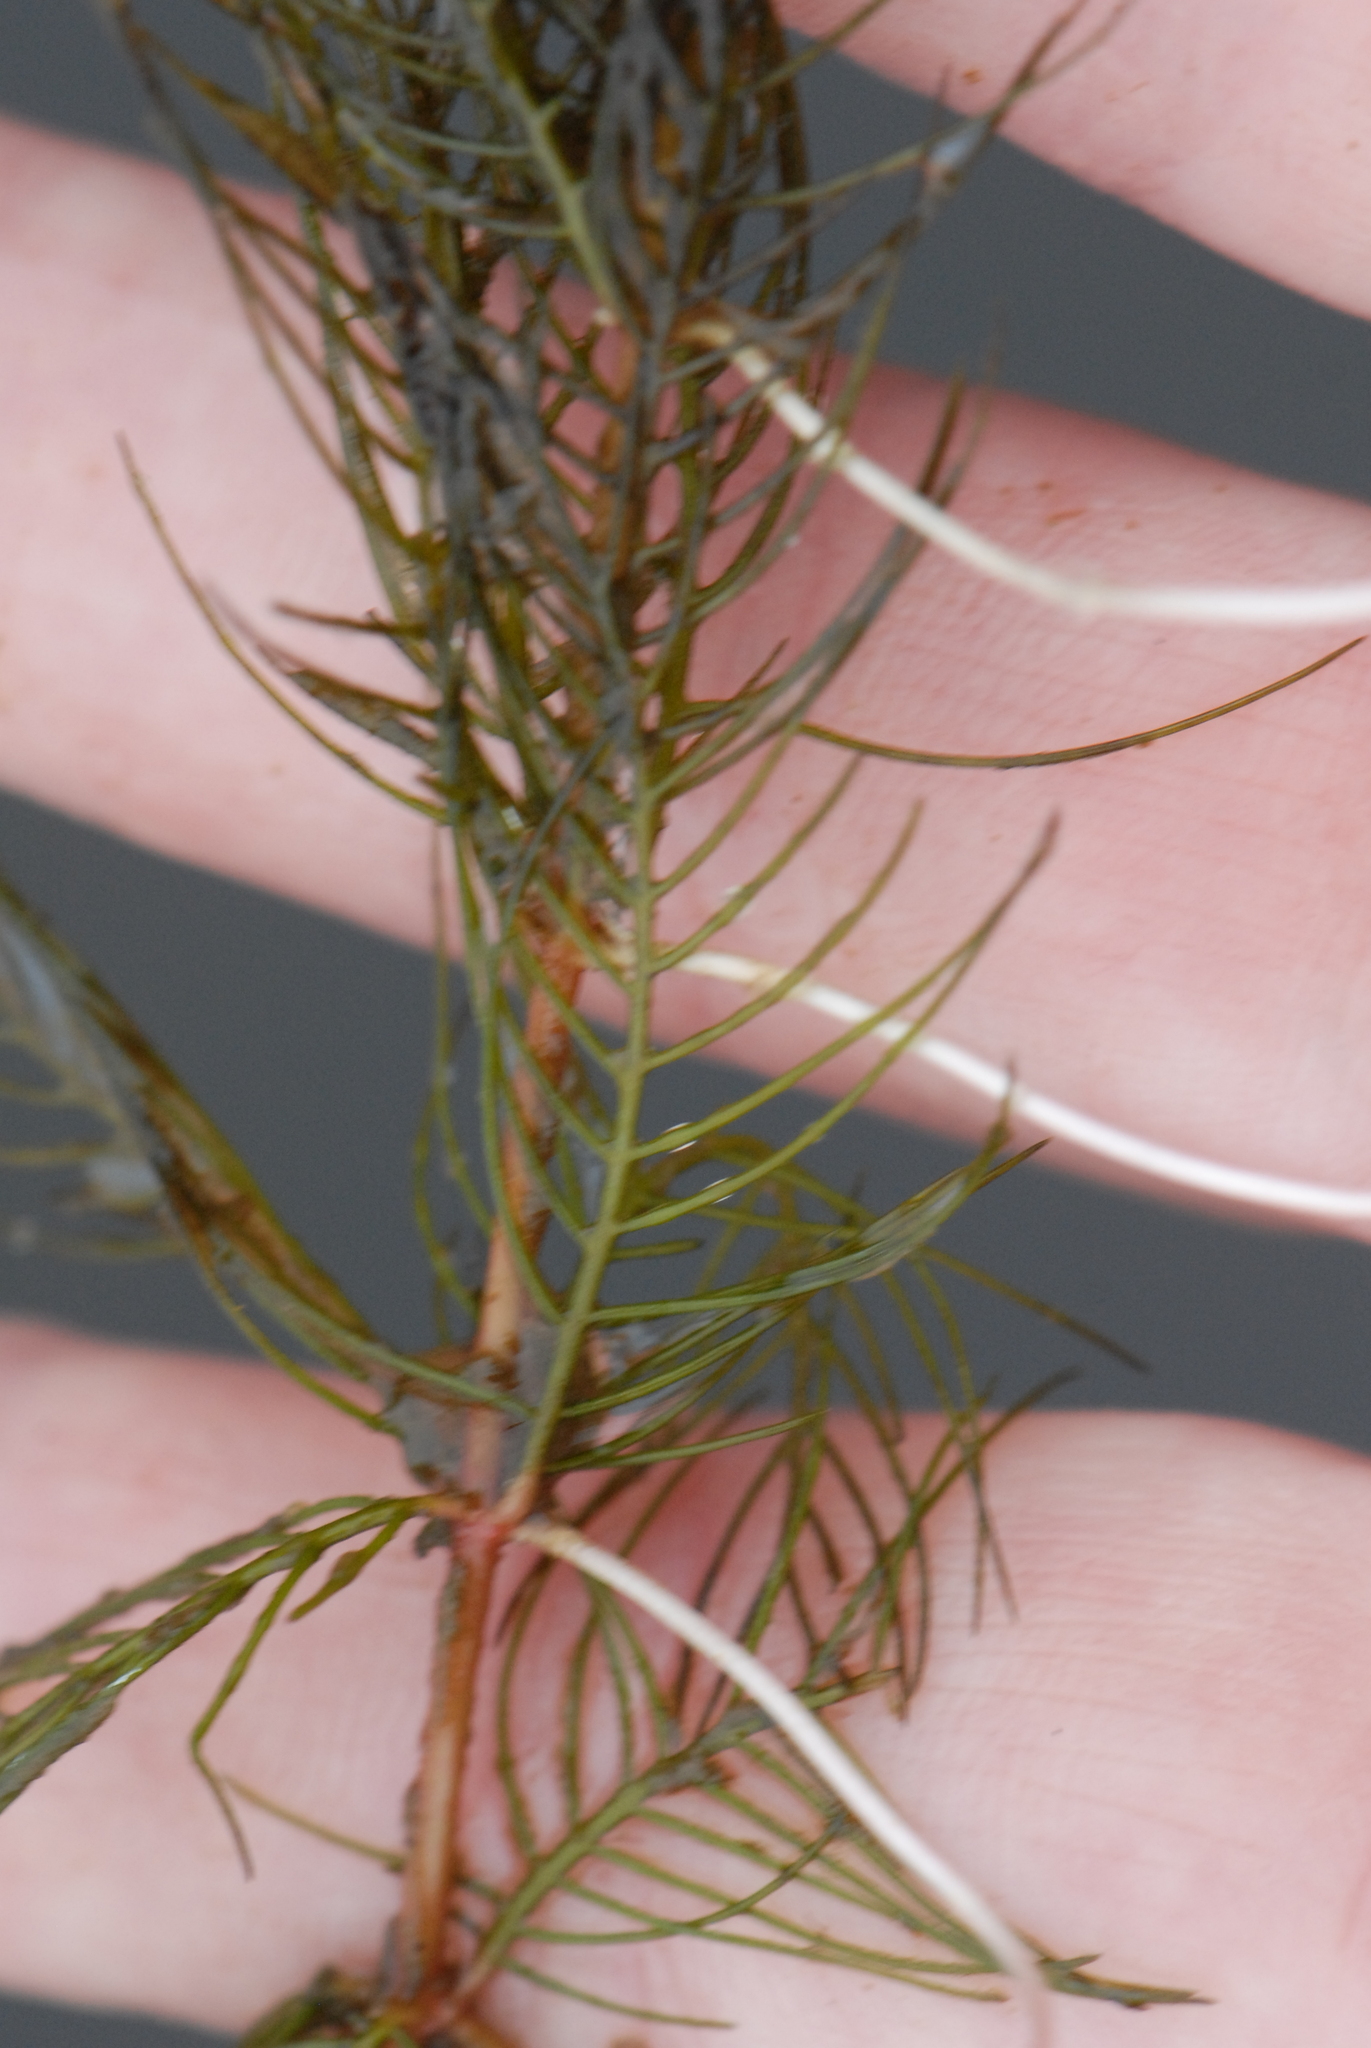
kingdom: Plantae
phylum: Tracheophyta
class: Magnoliopsida
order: Saxifragales
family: Haloragaceae
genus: Myriophyllum
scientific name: Myriophyllum sibiricum
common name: Siberian water-milfoil
